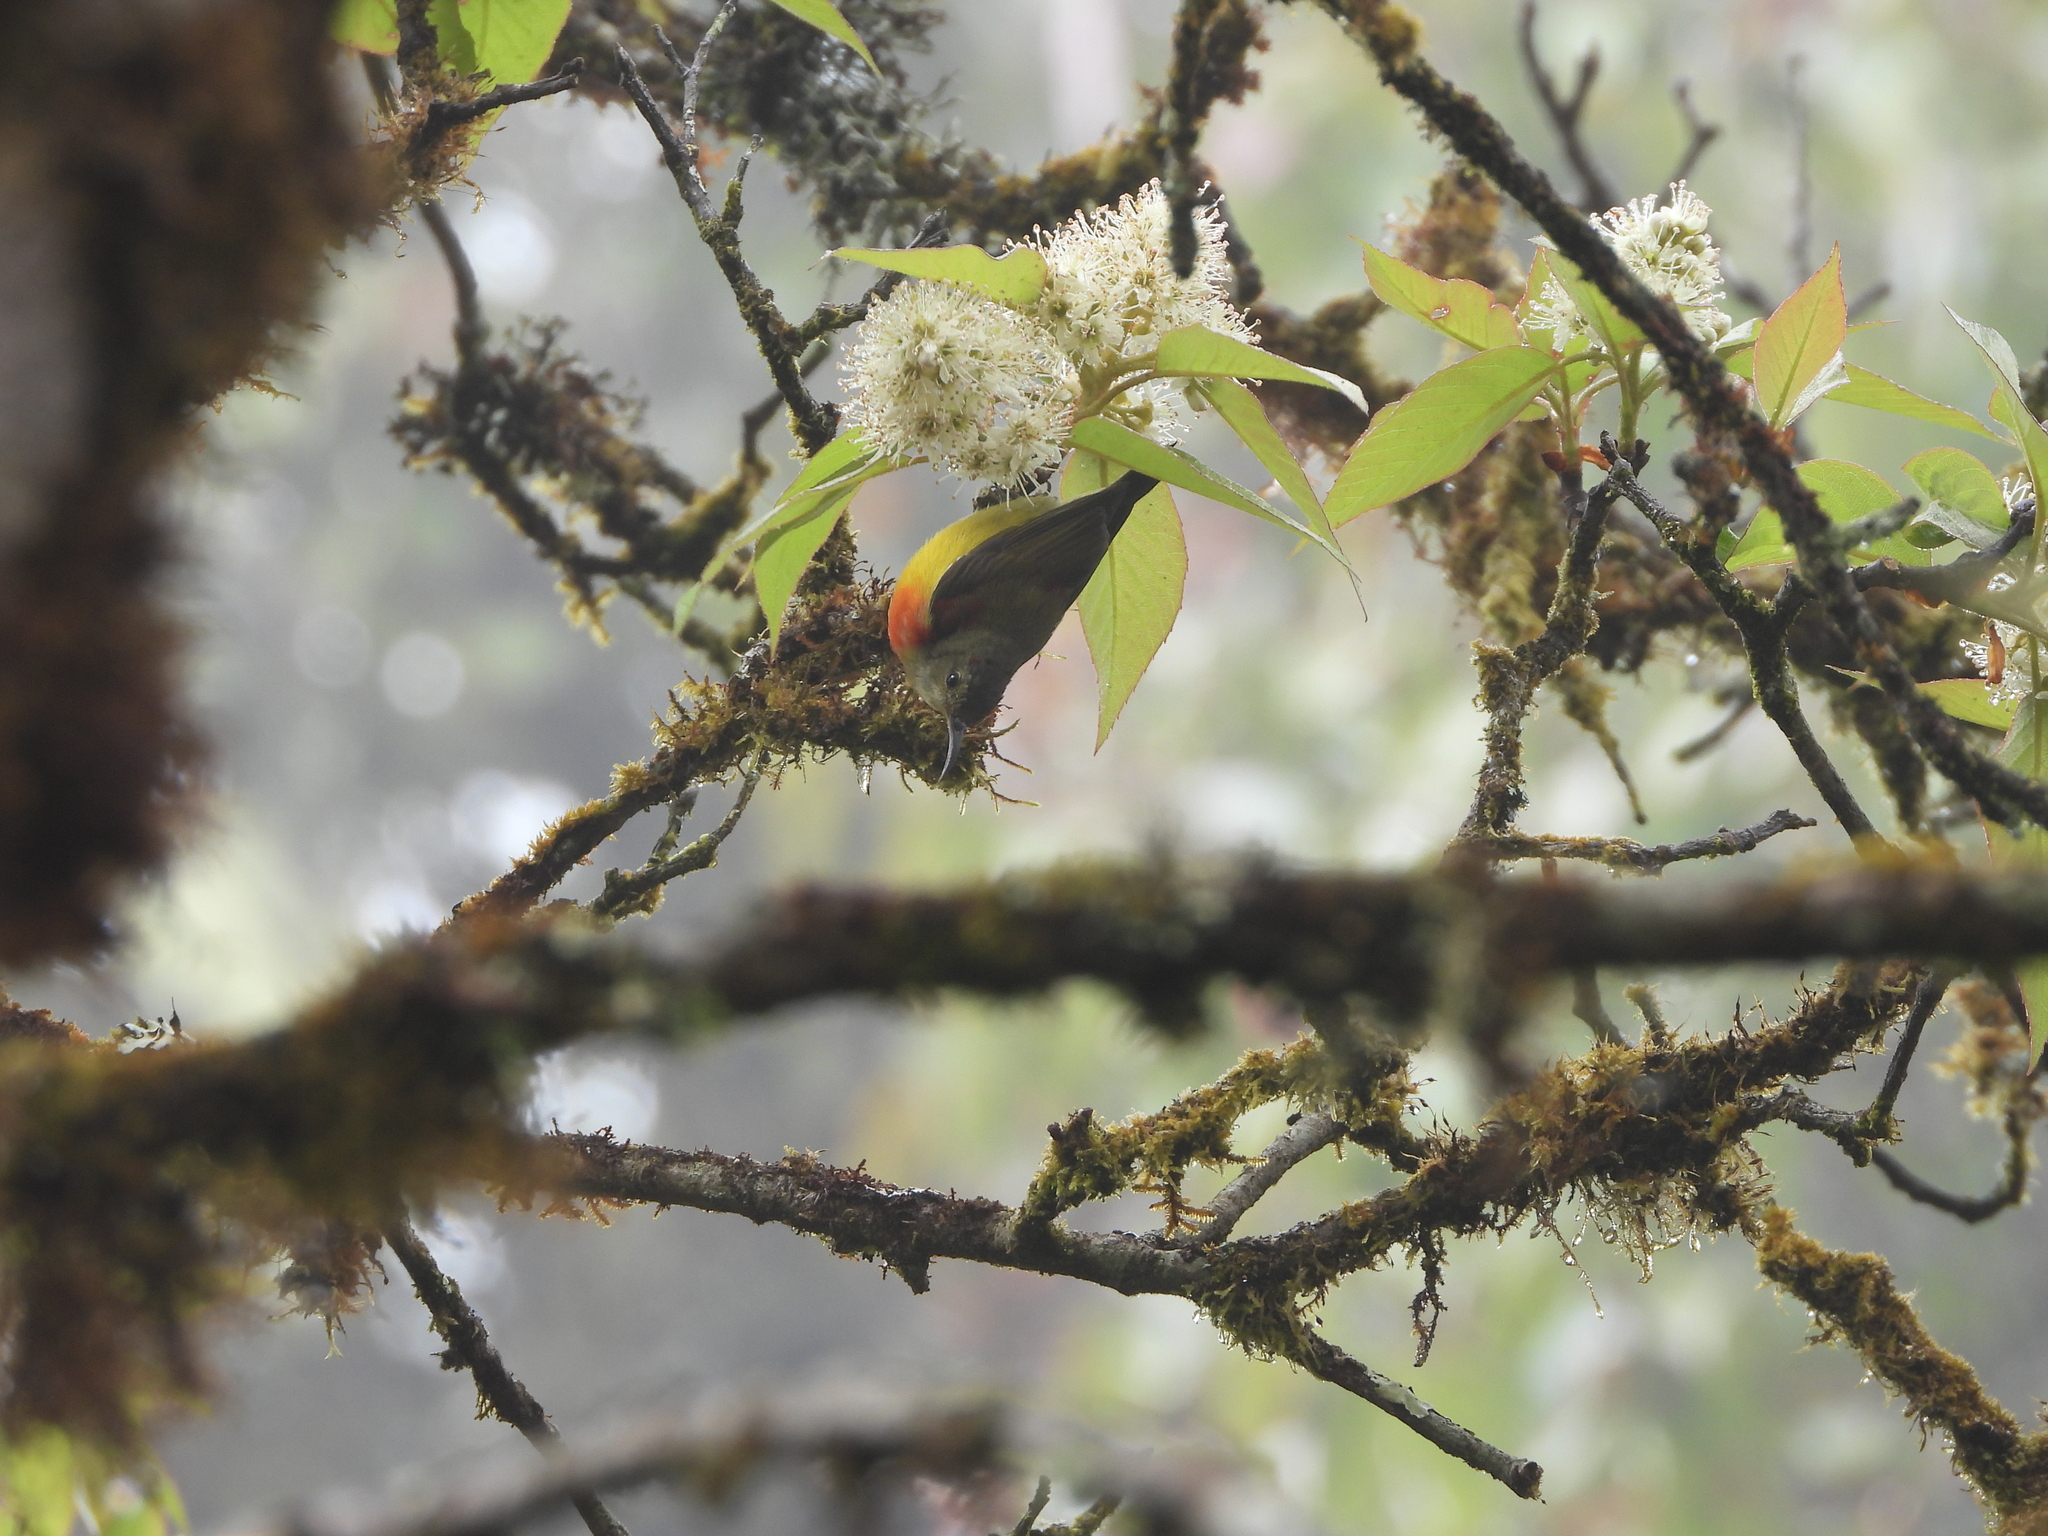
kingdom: Animalia
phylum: Chordata
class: Aves
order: Passeriformes
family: Nectariniidae
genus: Aethopyga
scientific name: Aethopyga gouldiae
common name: Mrs. gould's sunbird
